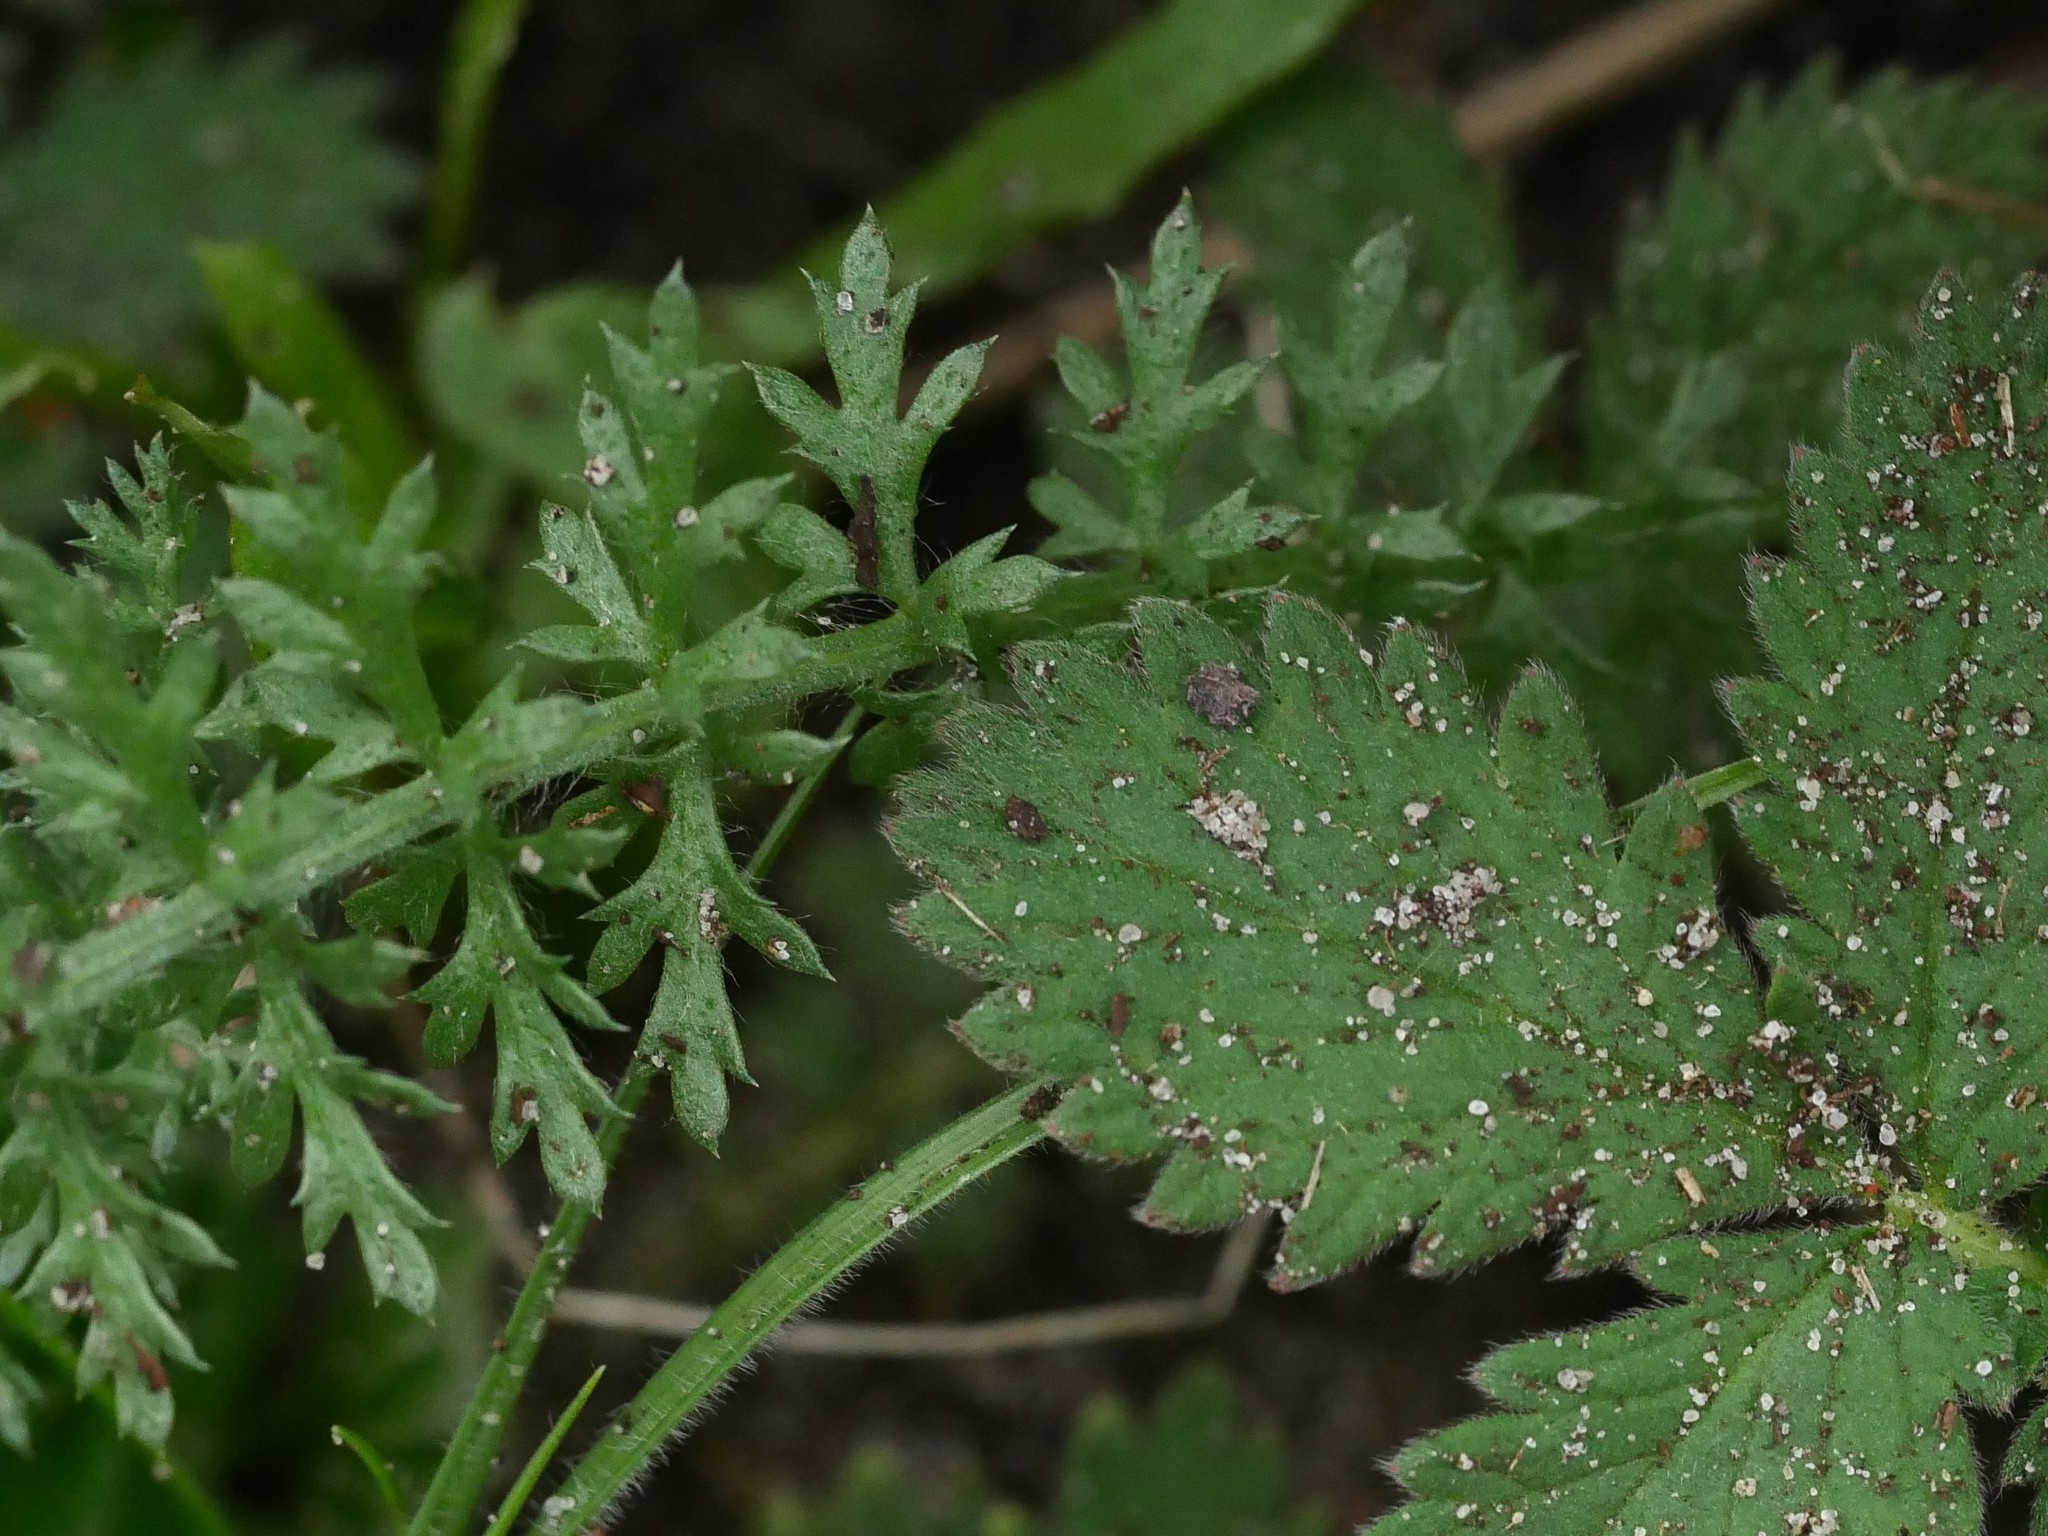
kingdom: Plantae
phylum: Tracheophyta
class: Magnoliopsida
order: Asterales
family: Asteraceae
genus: Achillea
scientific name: Achillea millefolium
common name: Yarrow
